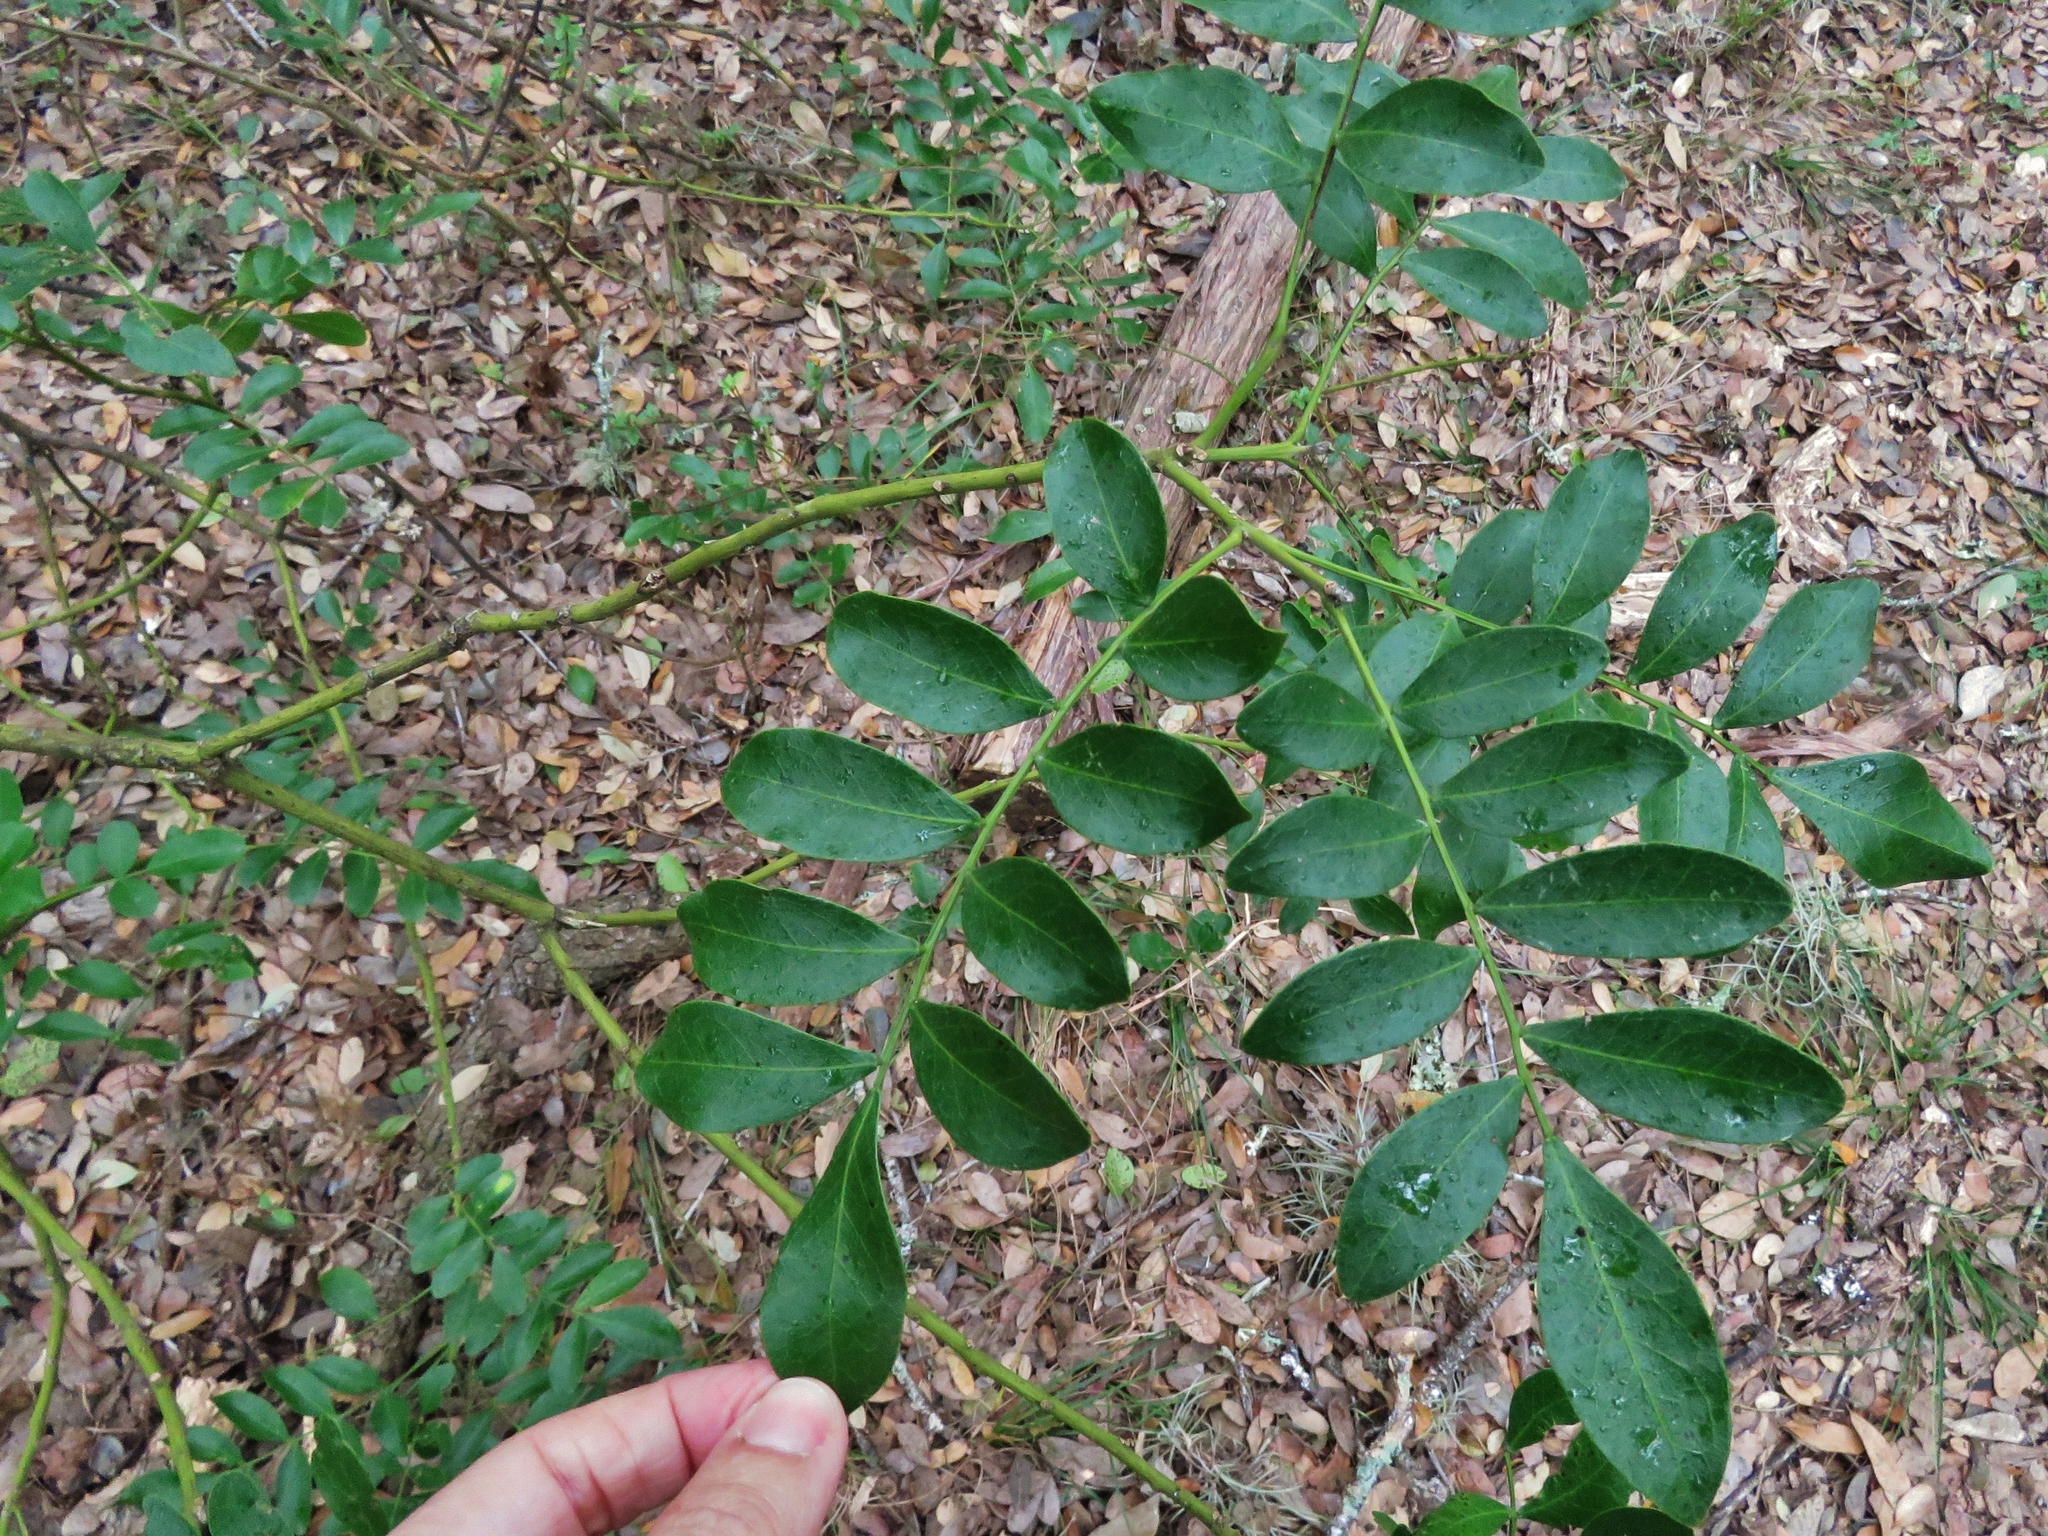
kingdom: Plantae
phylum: Tracheophyta
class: Magnoliopsida
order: Fabales
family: Fabaceae
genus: Dermatophyllum
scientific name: Dermatophyllum secundiflorum
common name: Texas-mountain-laurel
